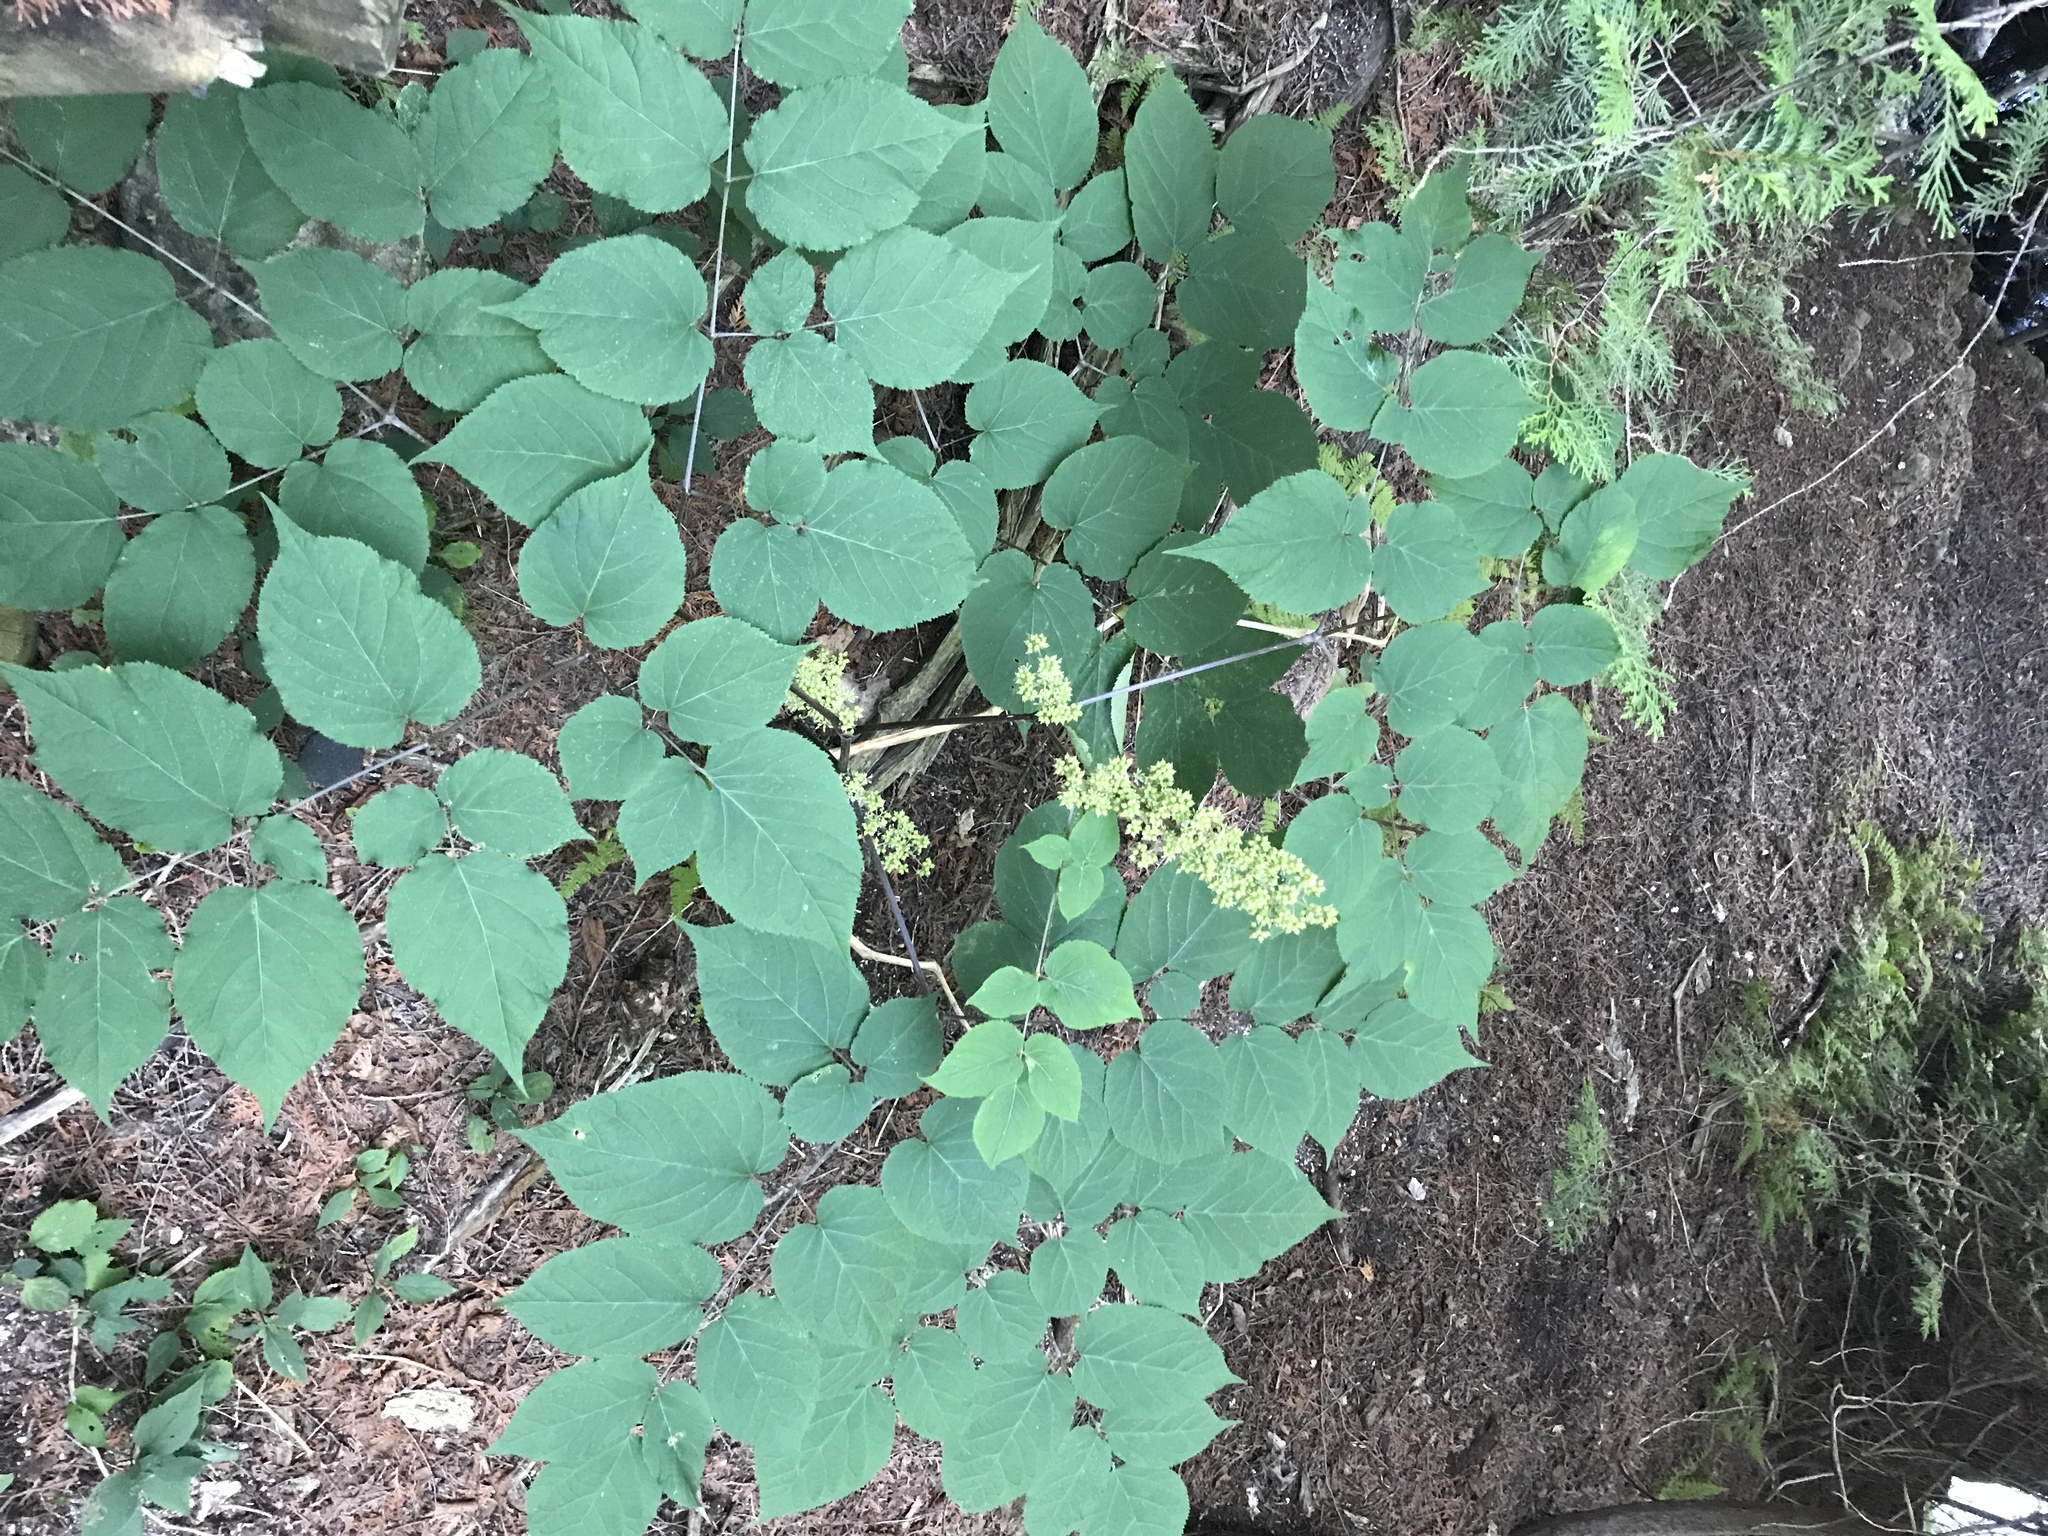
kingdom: Plantae
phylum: Tracheophyta
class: Magnoliopsida
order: Apiales
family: Araliaceae
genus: Aralia
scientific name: Aralia racemosa
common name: American-spikenard
